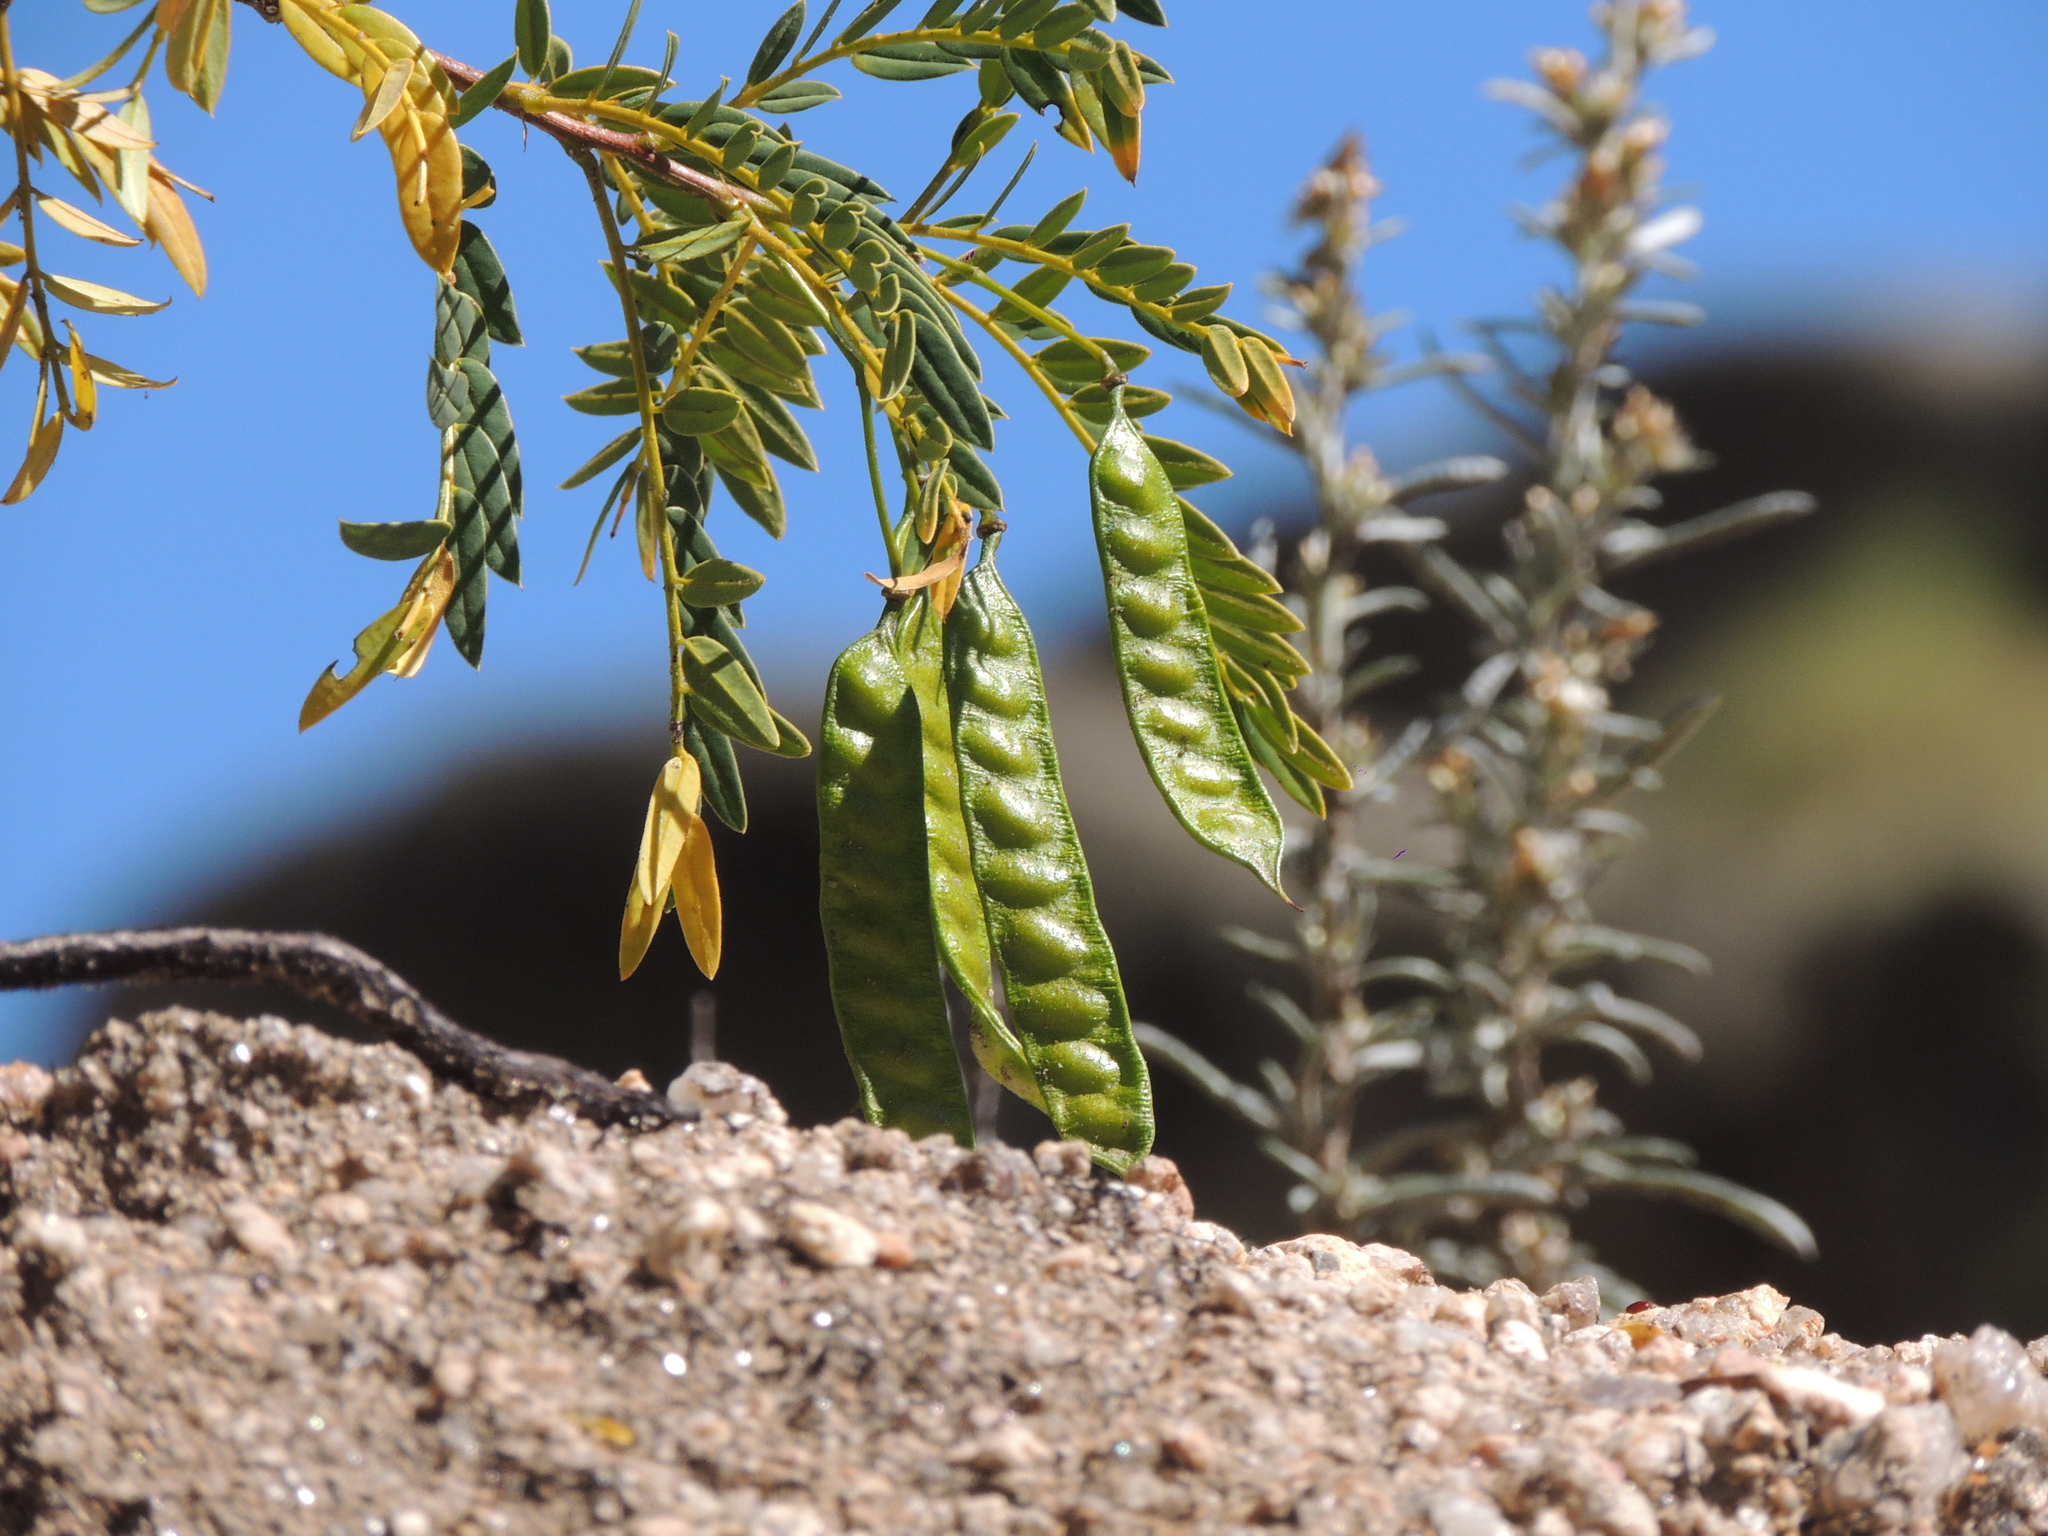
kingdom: Plantae
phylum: Tracheophyta
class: Magnoliopsida
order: Fabales
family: Fabaceae
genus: Senna
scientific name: Senna birostris
